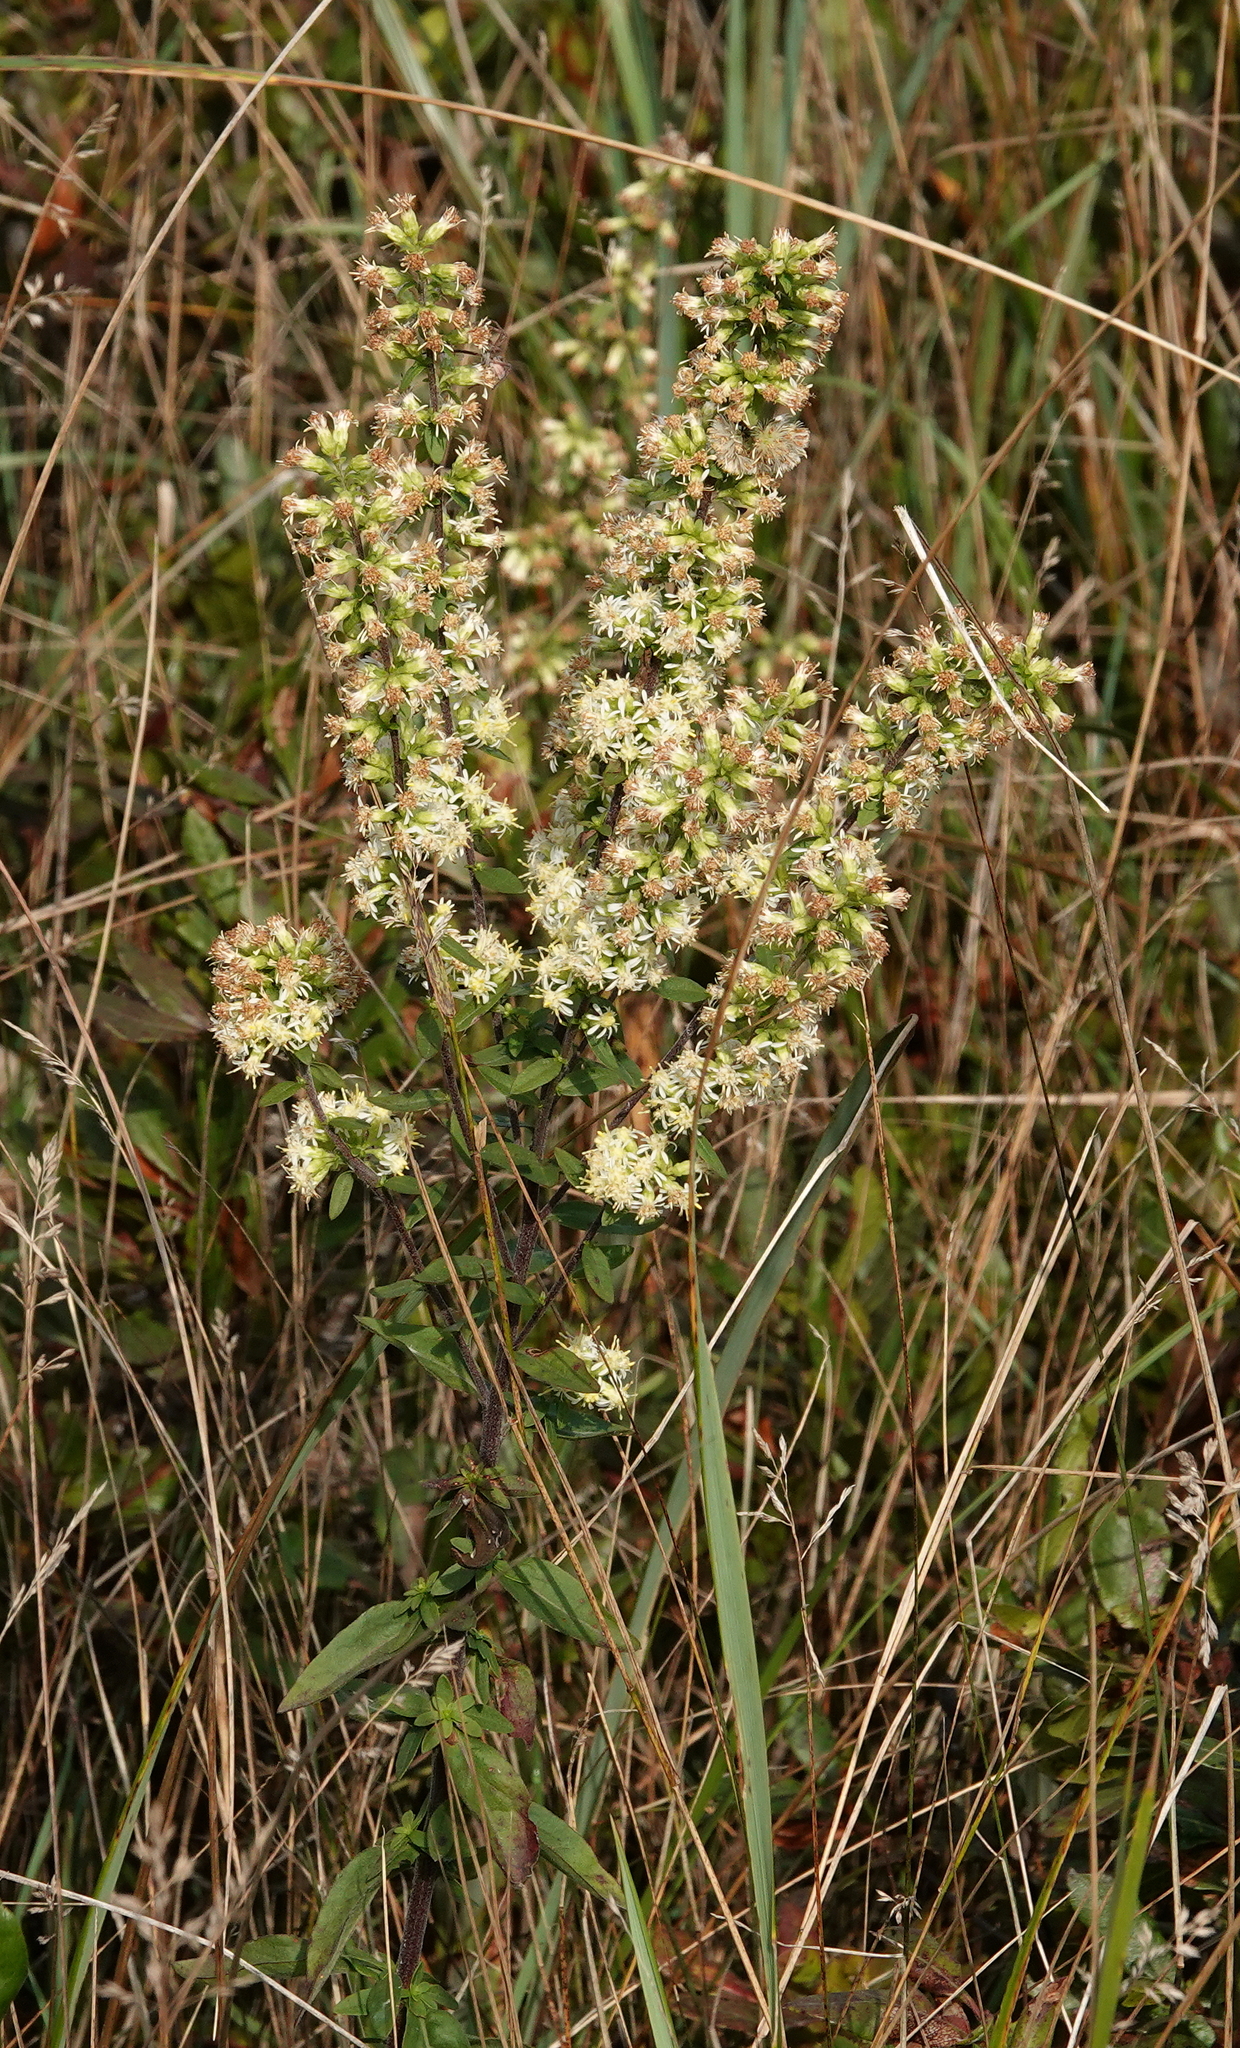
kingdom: Plantae
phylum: Tracheophyta
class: Magnoliopsida
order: Asterales
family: Asteraceae
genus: Solidago
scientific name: Solidago bicolor
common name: Silverrod
